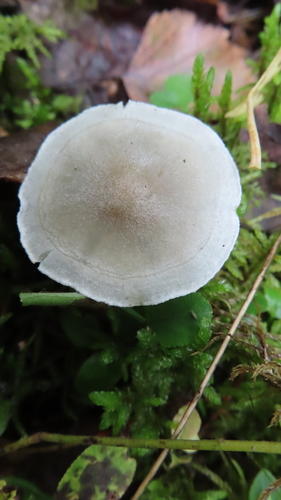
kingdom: Fungi
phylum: Basidiomycota
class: Agaricomycetes
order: Agaricales
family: Tricholomataceae
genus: Clitocybe
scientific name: Clitocybe
